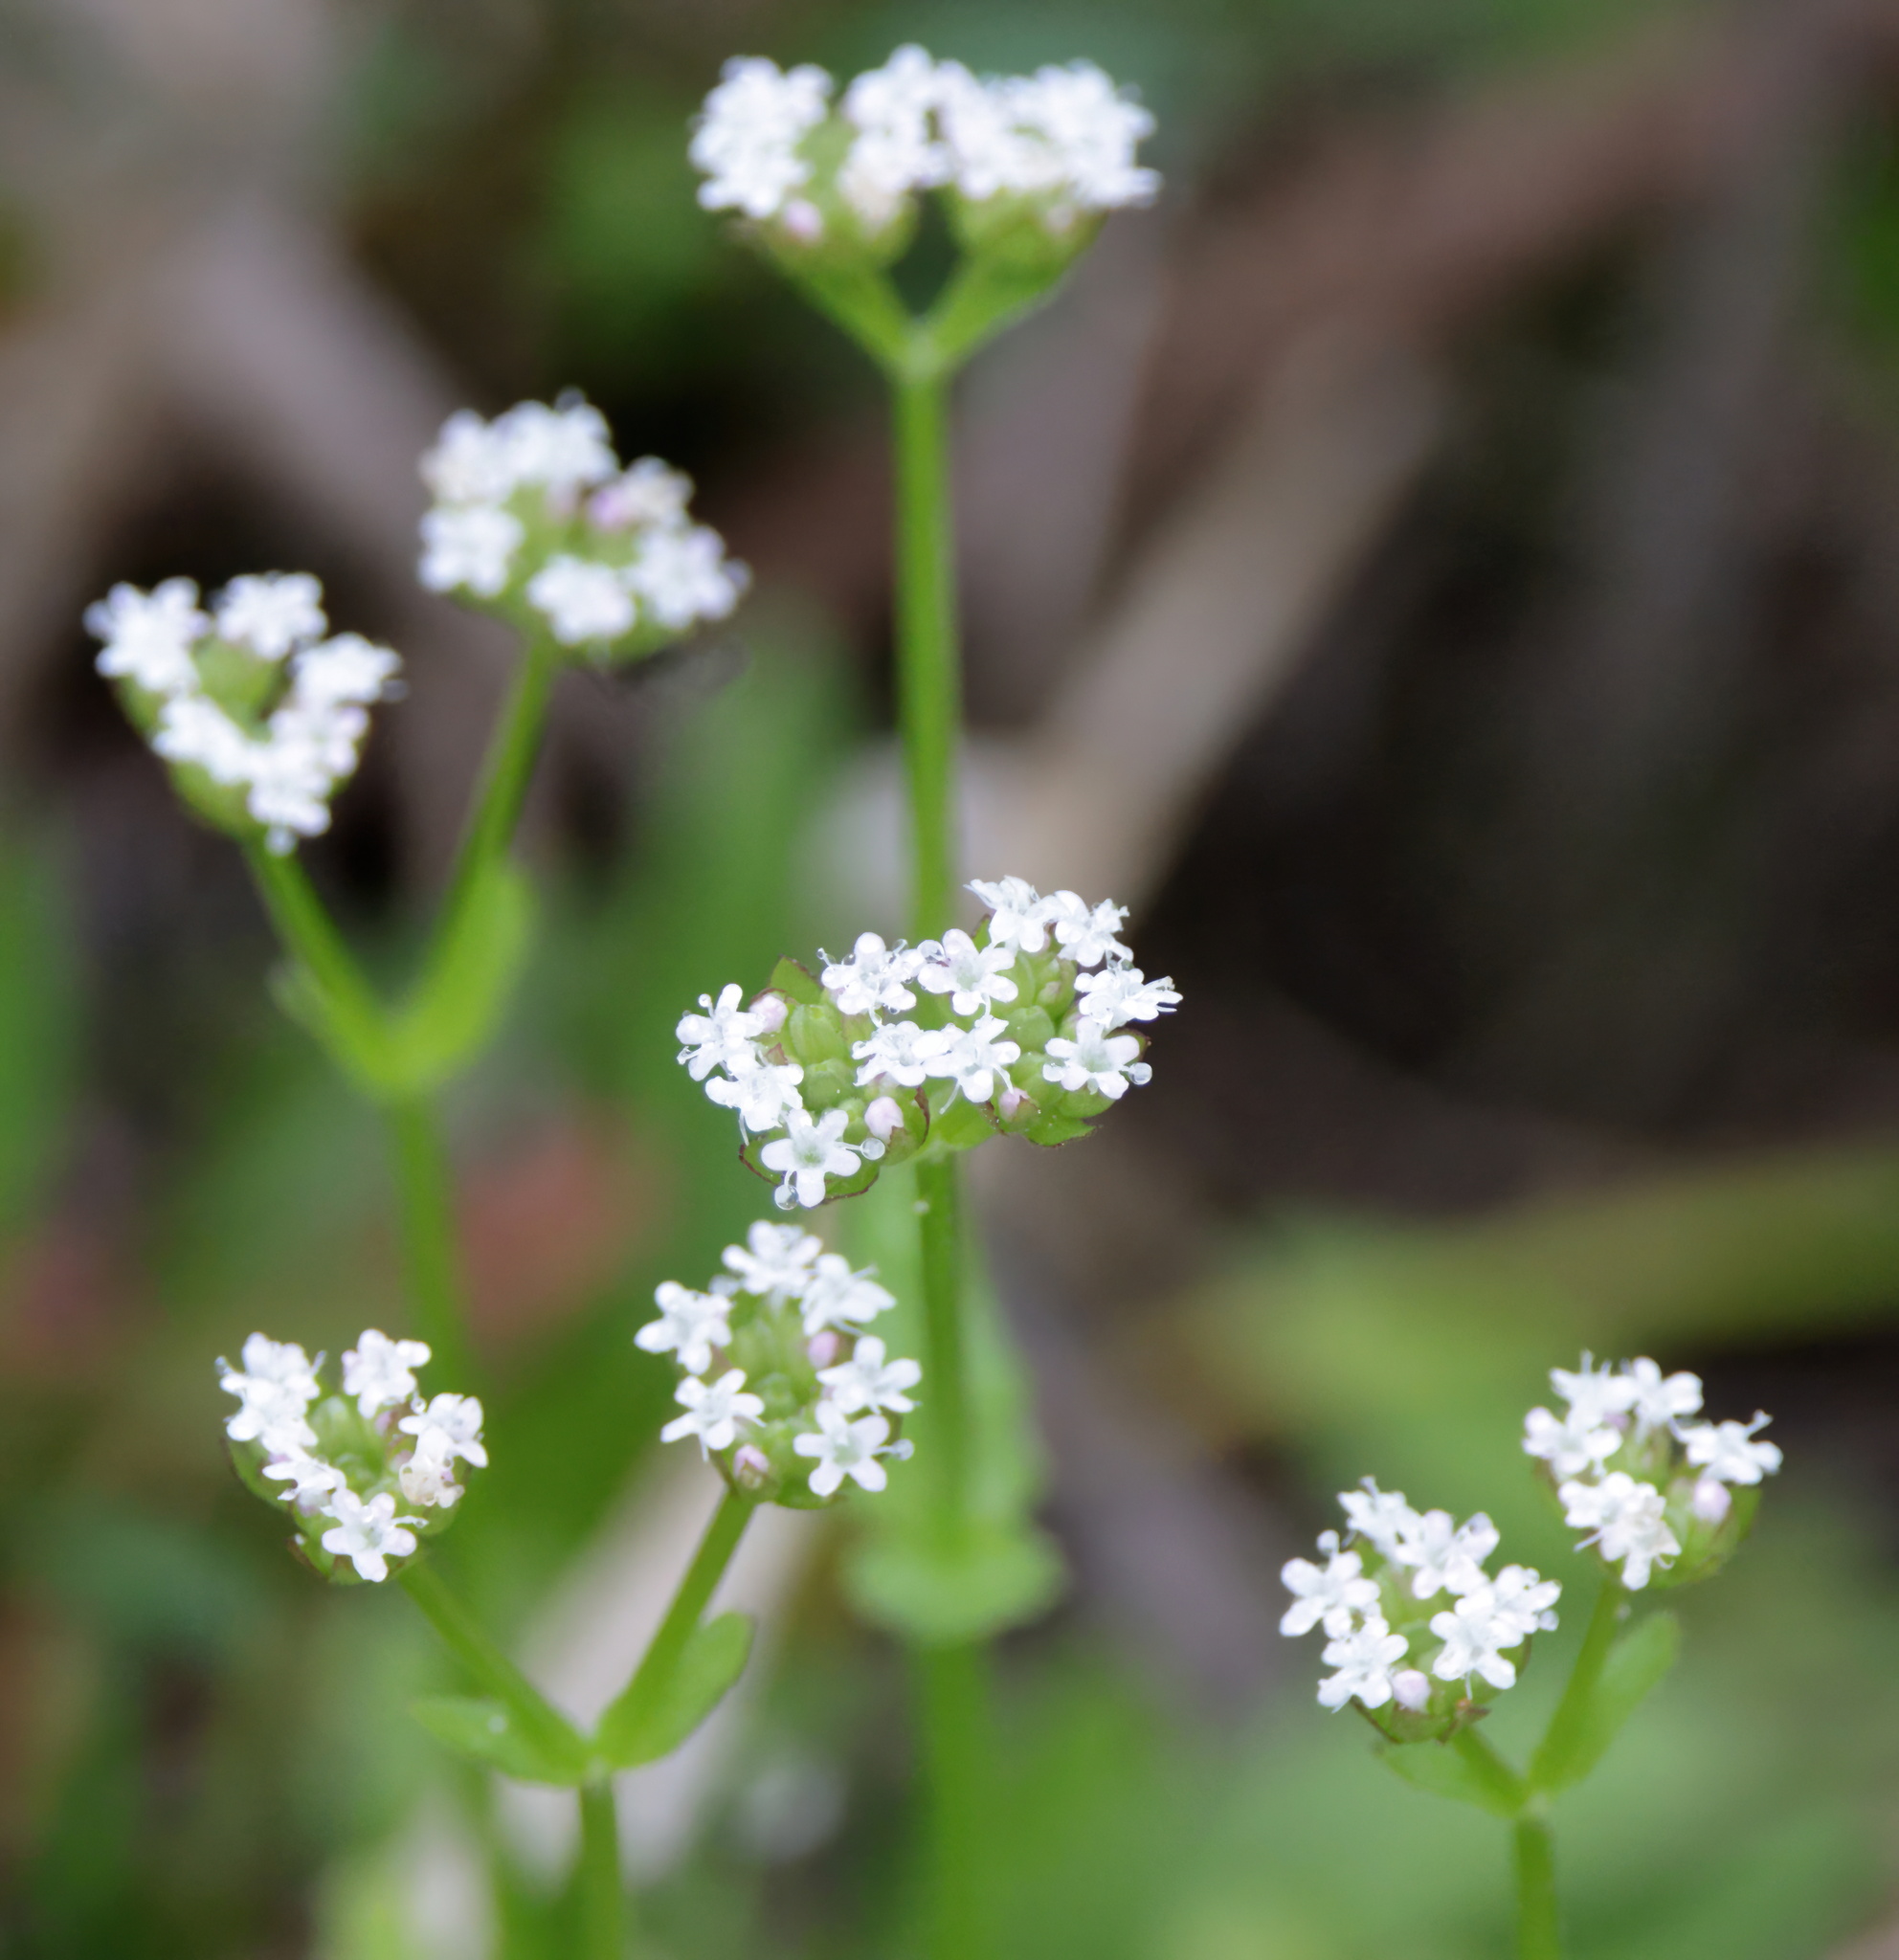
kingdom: Plantae
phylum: Tracheophyta
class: Magnoliopsida
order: Dipsacales
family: Caprifoliaceae
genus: Valerianella
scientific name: Valerianella radiata
